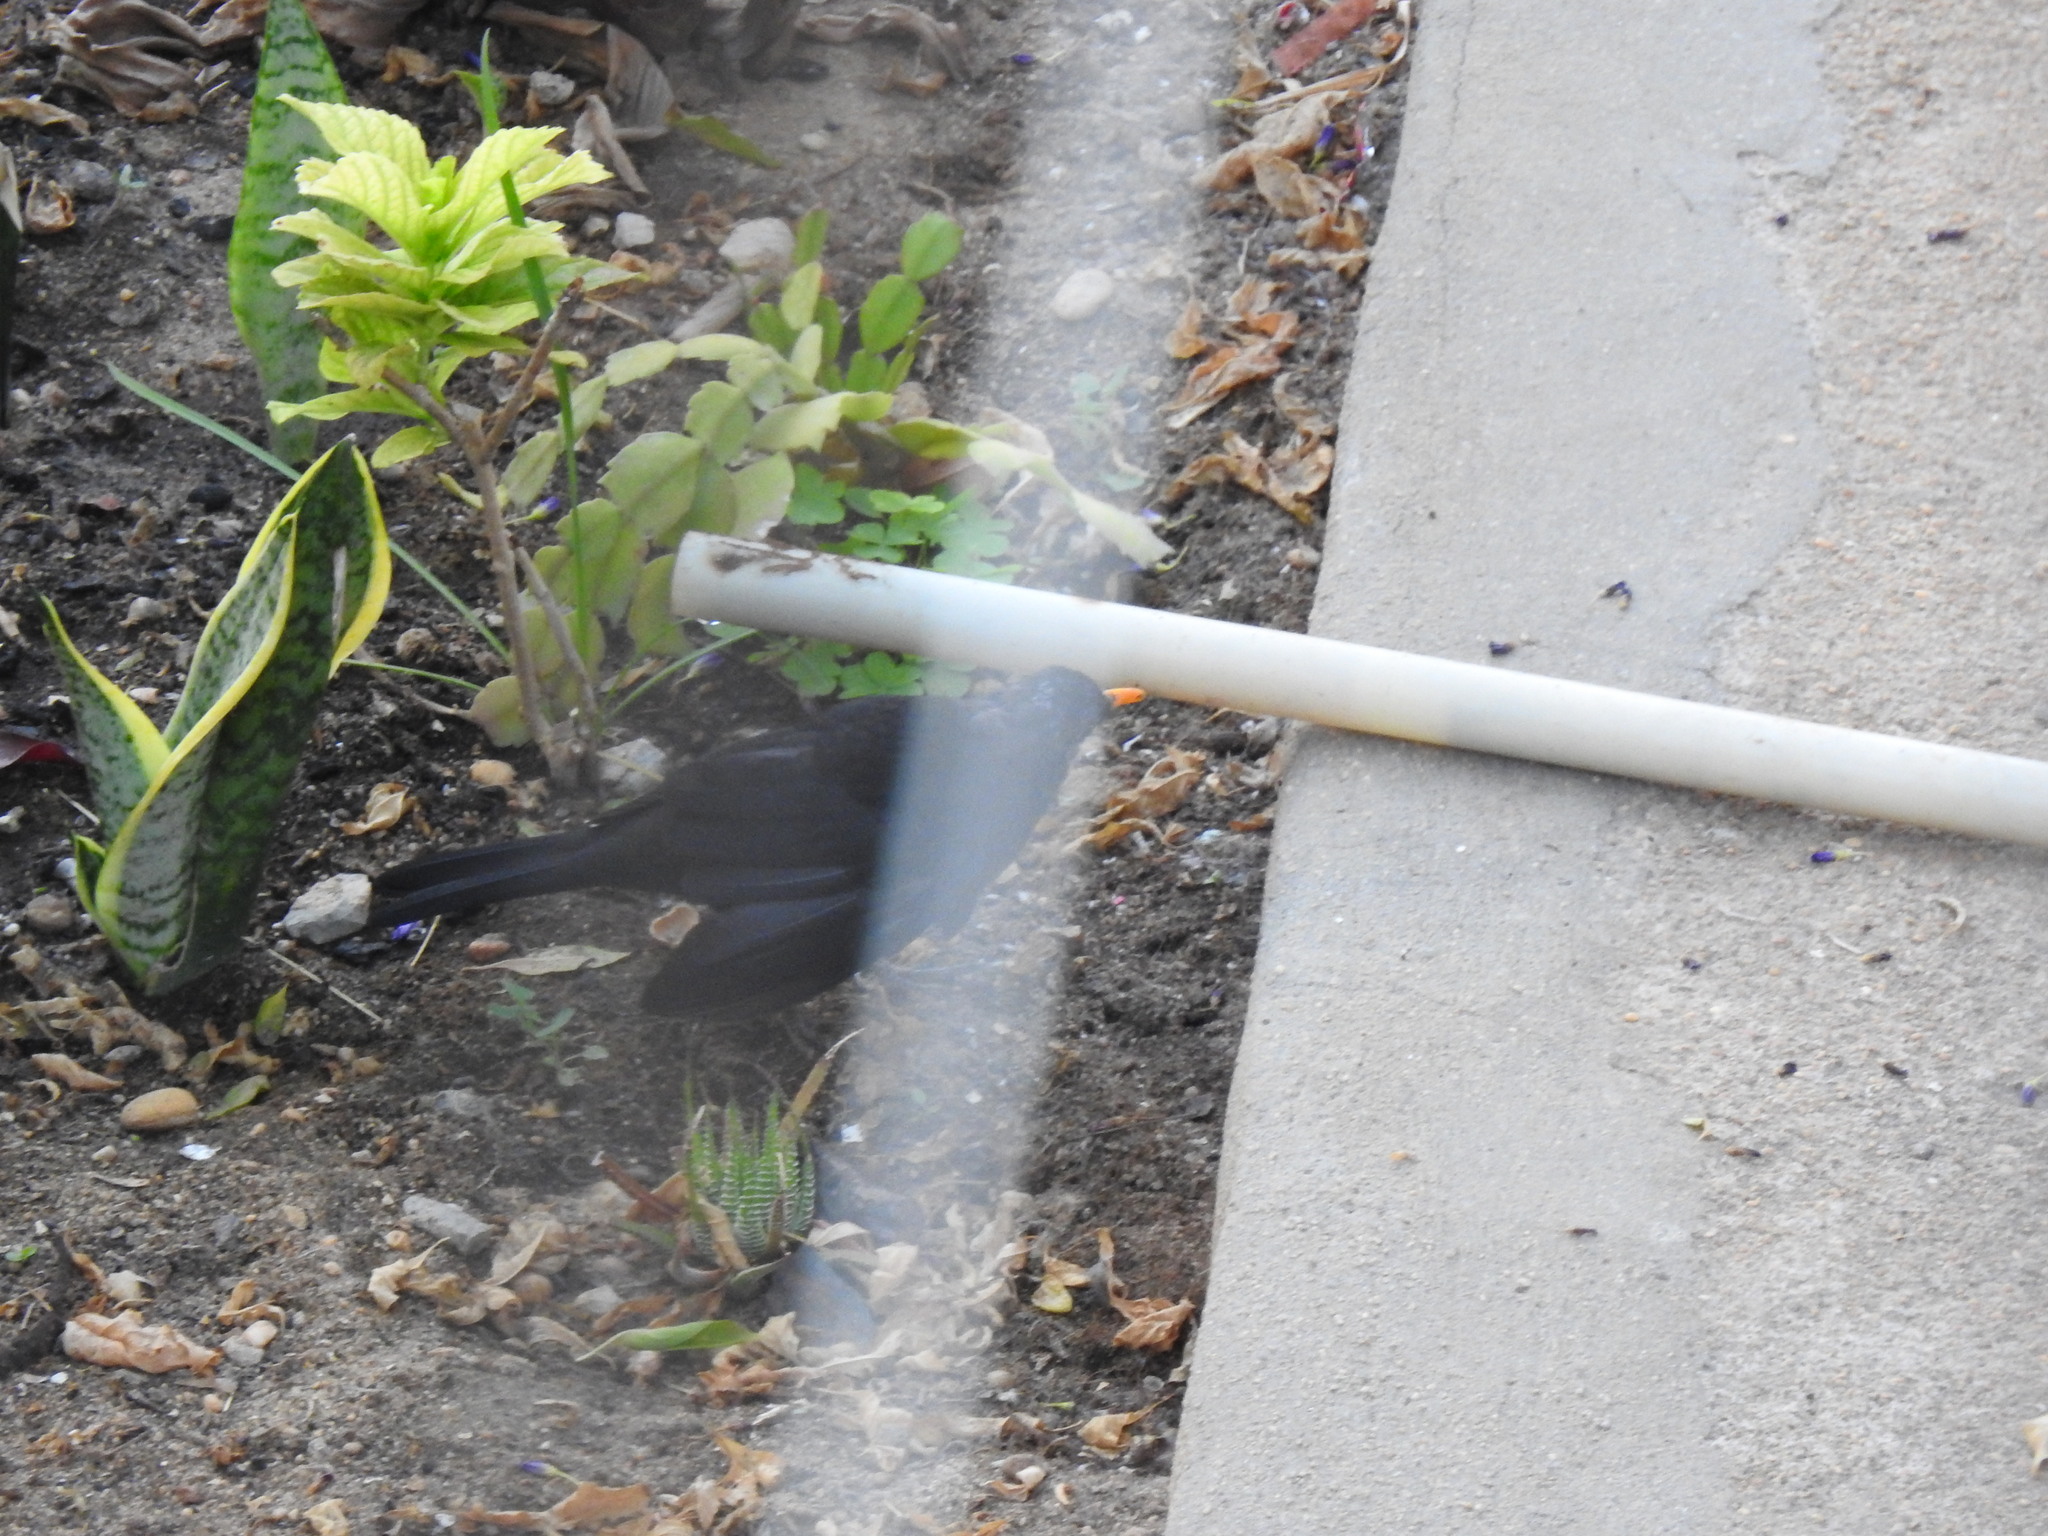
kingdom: Animalia
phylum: Chordata
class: Aves
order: Passeriformes
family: Turdidae
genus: Turdus
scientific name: Turdus merula
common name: Common blackbird
